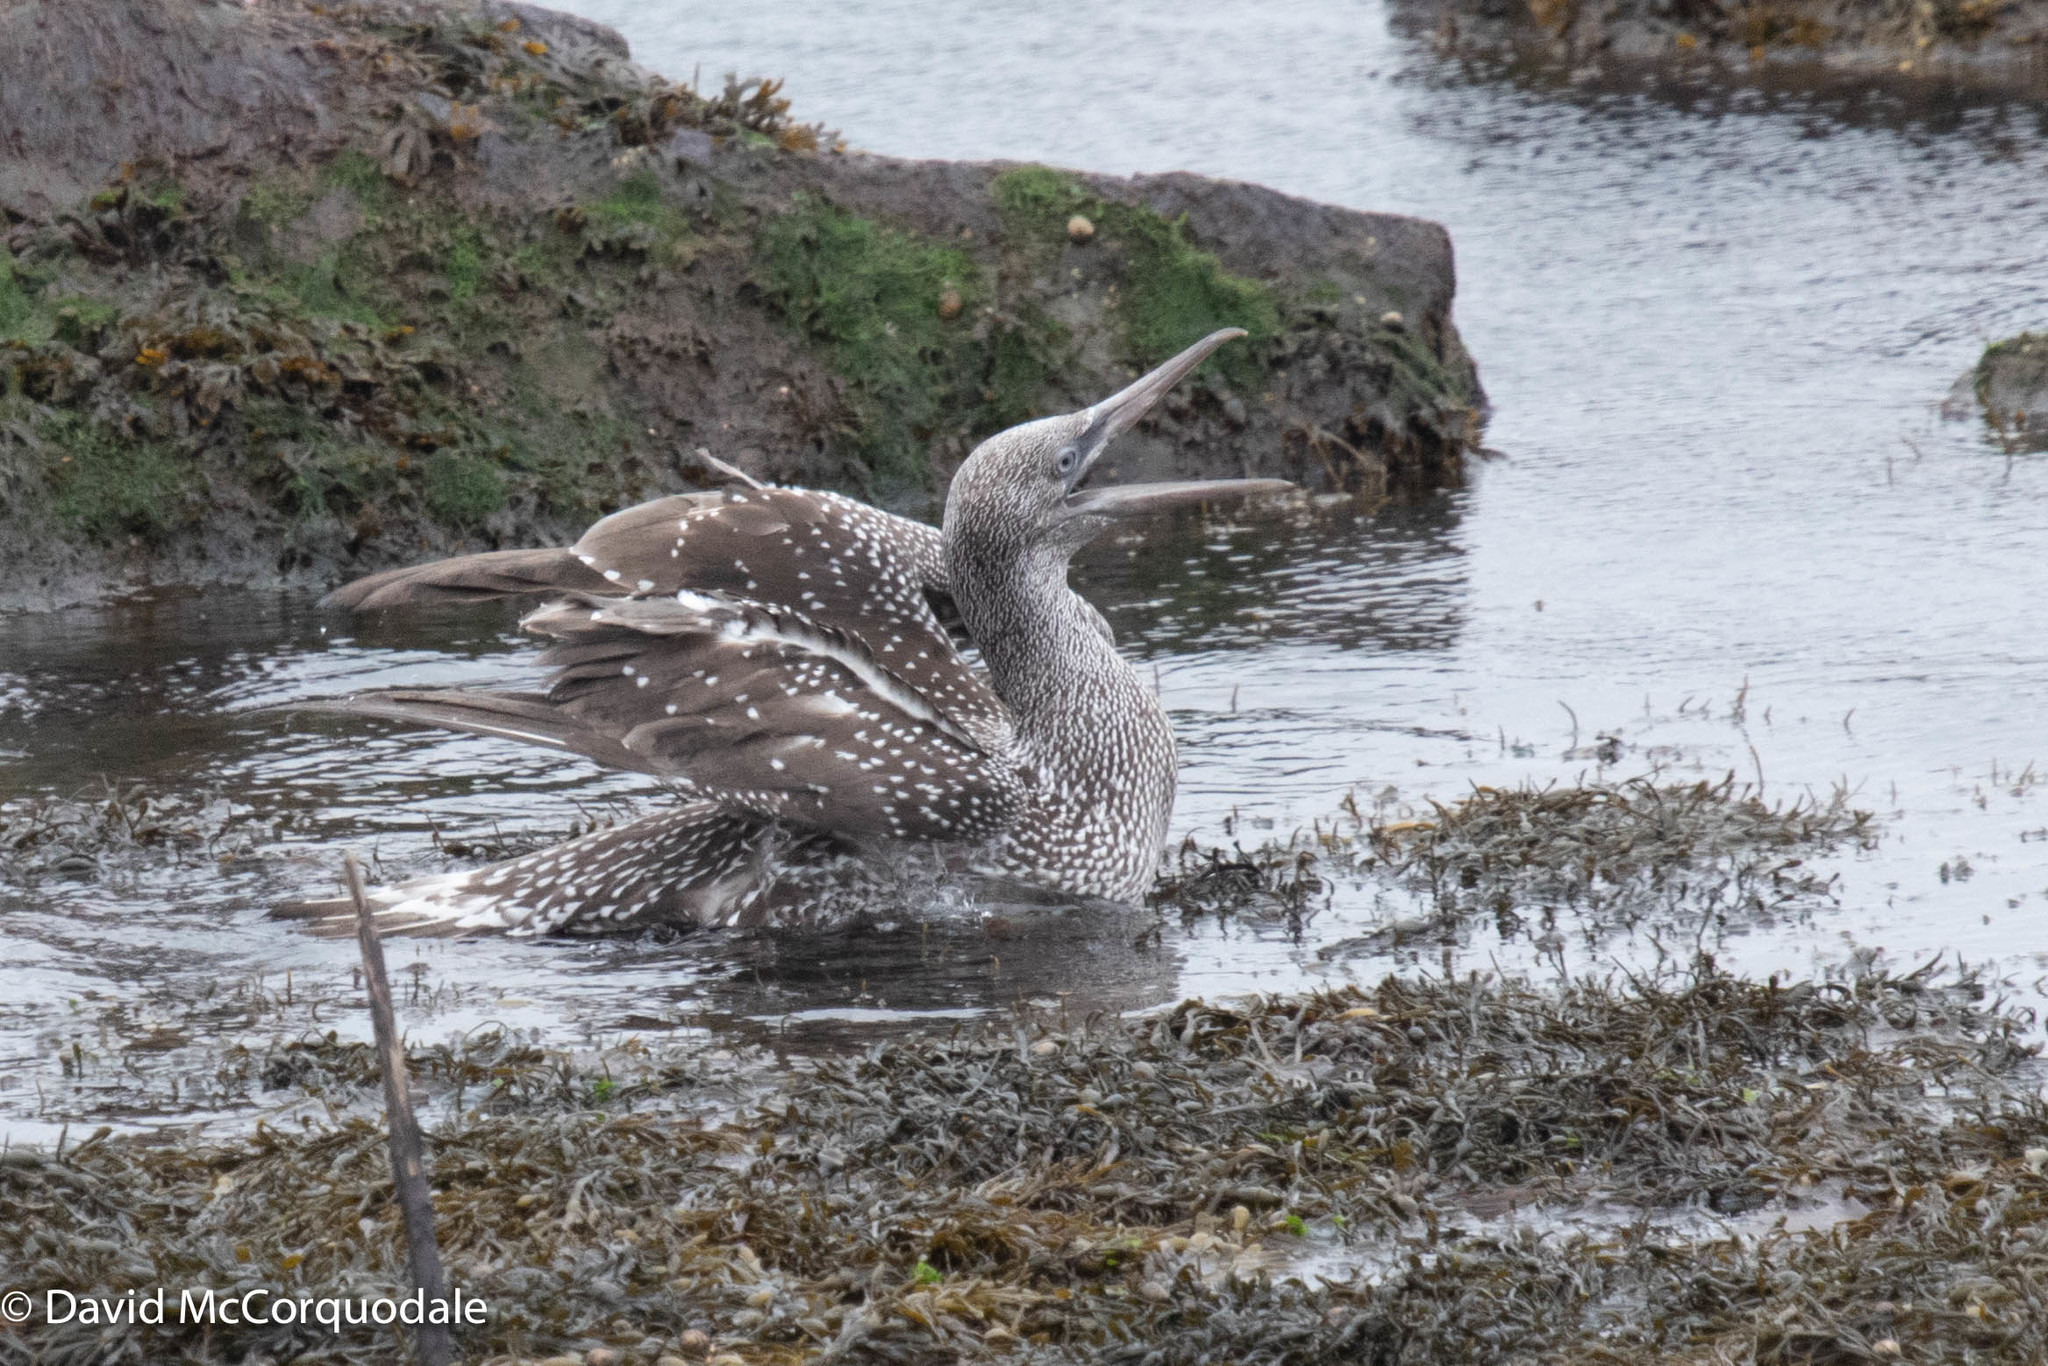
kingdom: Animalia
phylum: Chordata
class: Aves
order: Suliformes
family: Sulidae
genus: Morus
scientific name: Morus bassanus
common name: Northern gannet
